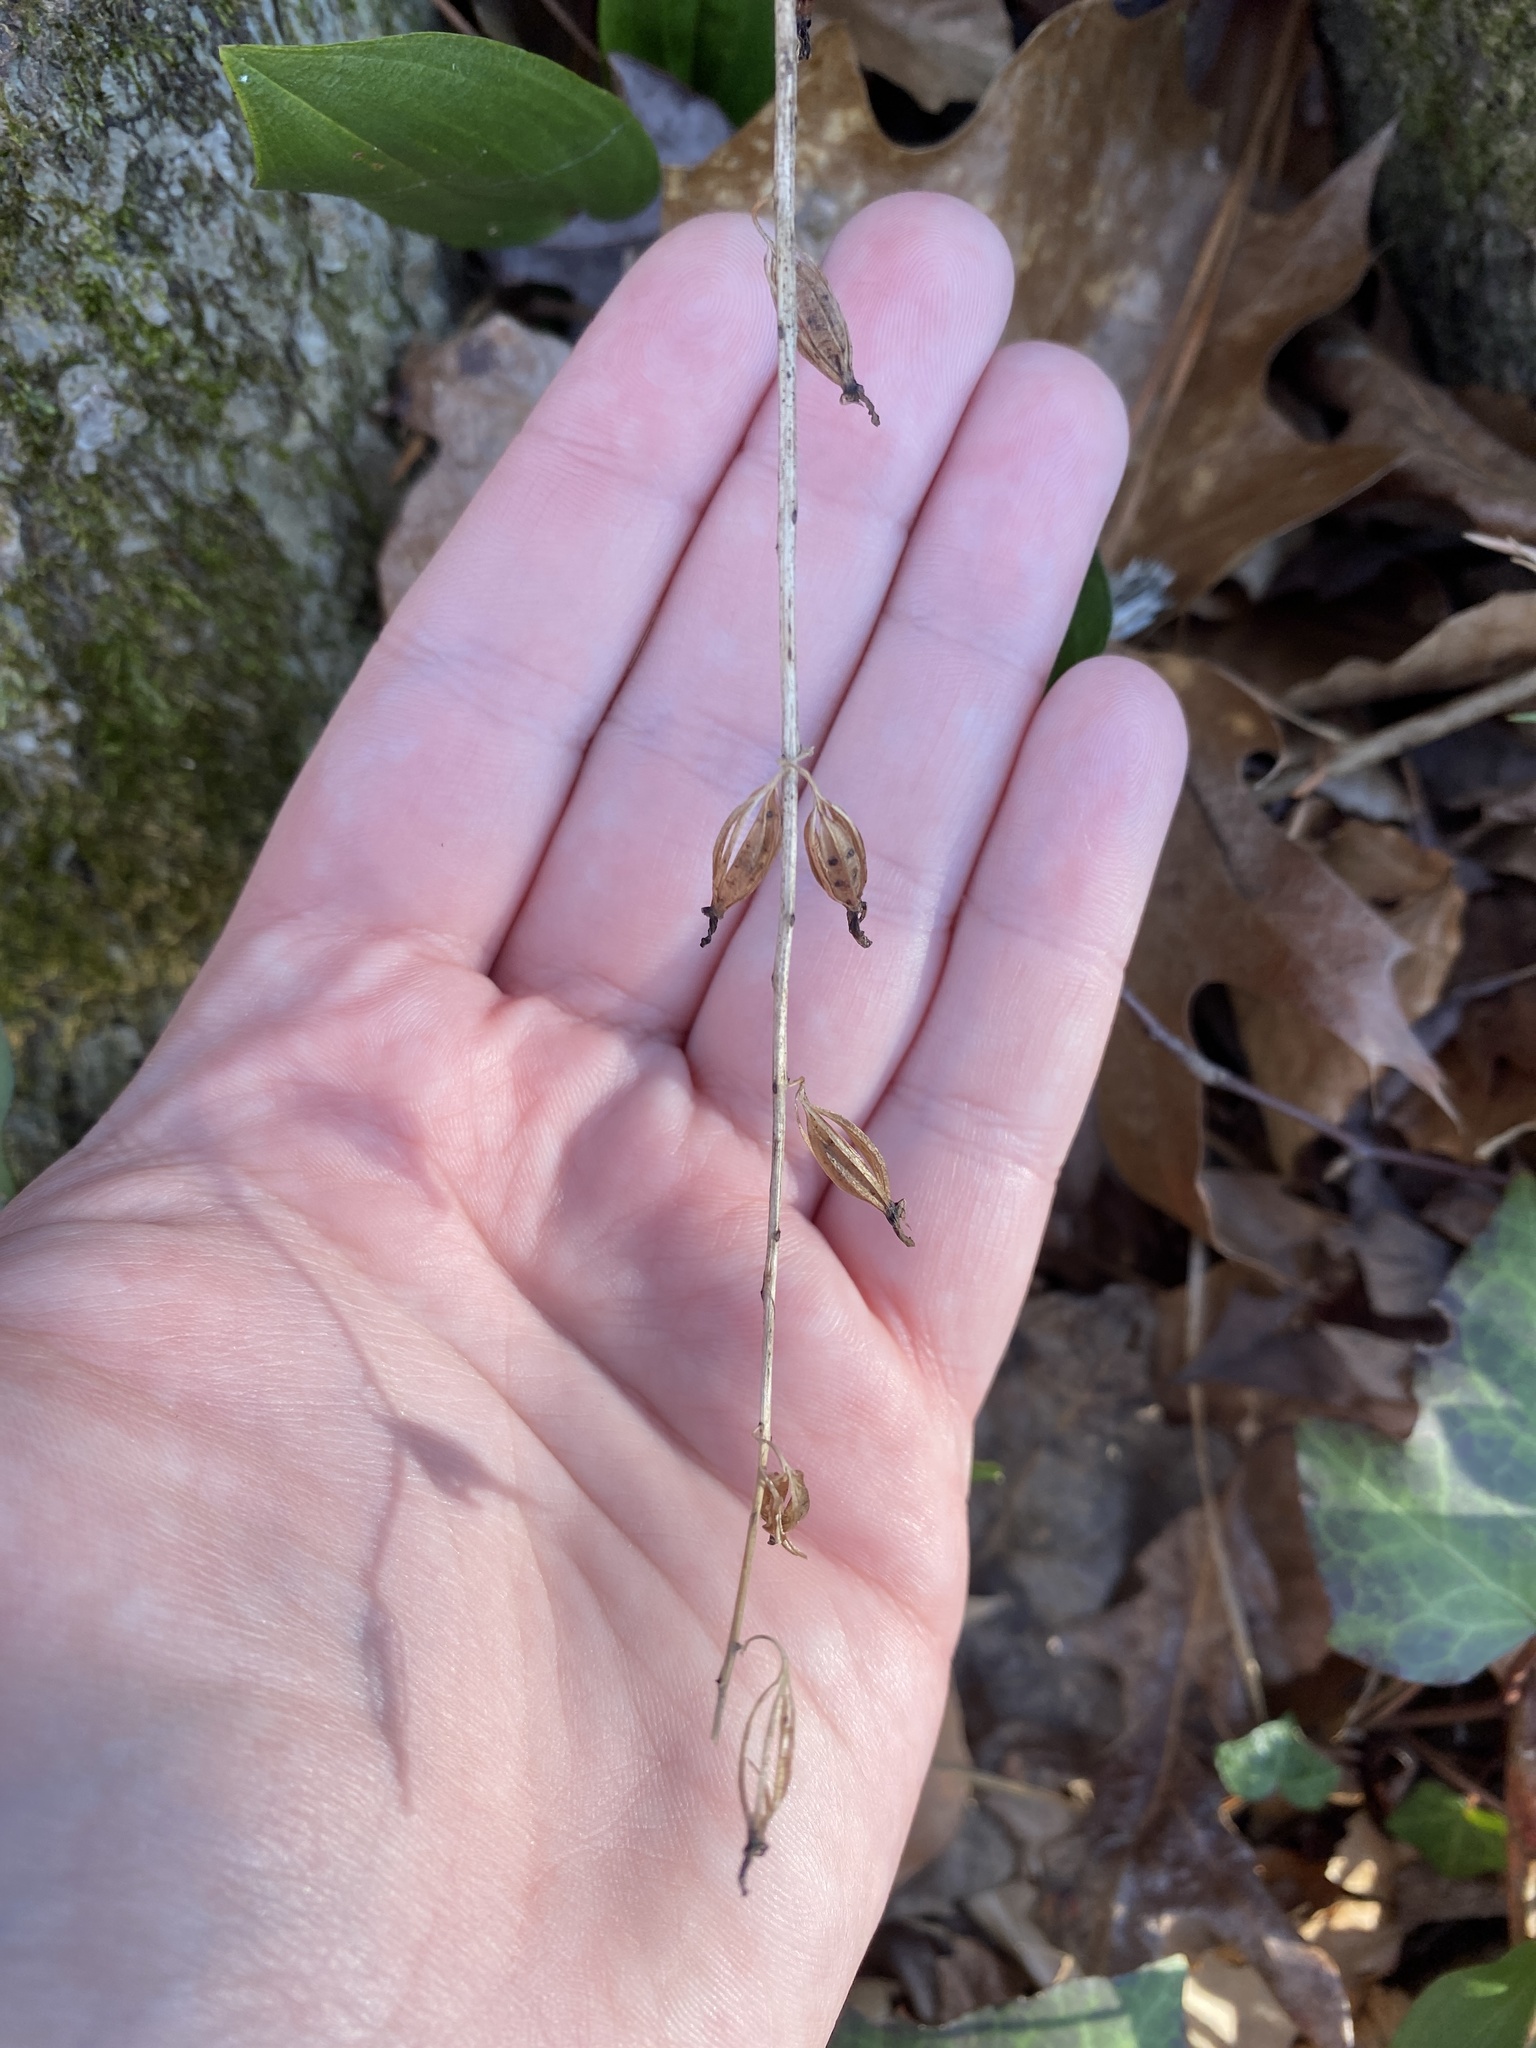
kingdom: Plantae
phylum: Tracheophyta
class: Liliopsida
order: Asparagales
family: Orchidaceae
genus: Tipularia
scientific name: Tipularia discolor
